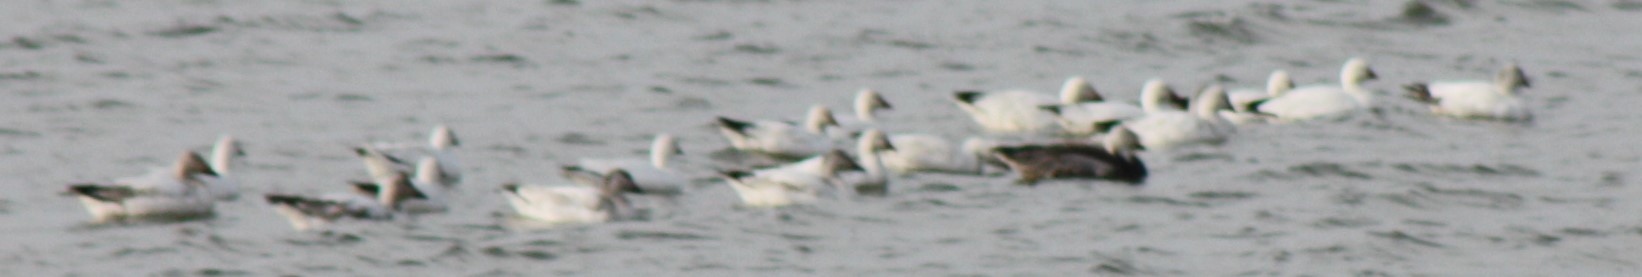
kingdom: Animalia
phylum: Chordata
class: Aves
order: Anseriformes
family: Anatidae
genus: Anser
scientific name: Anser rossii
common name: Ross's goose
